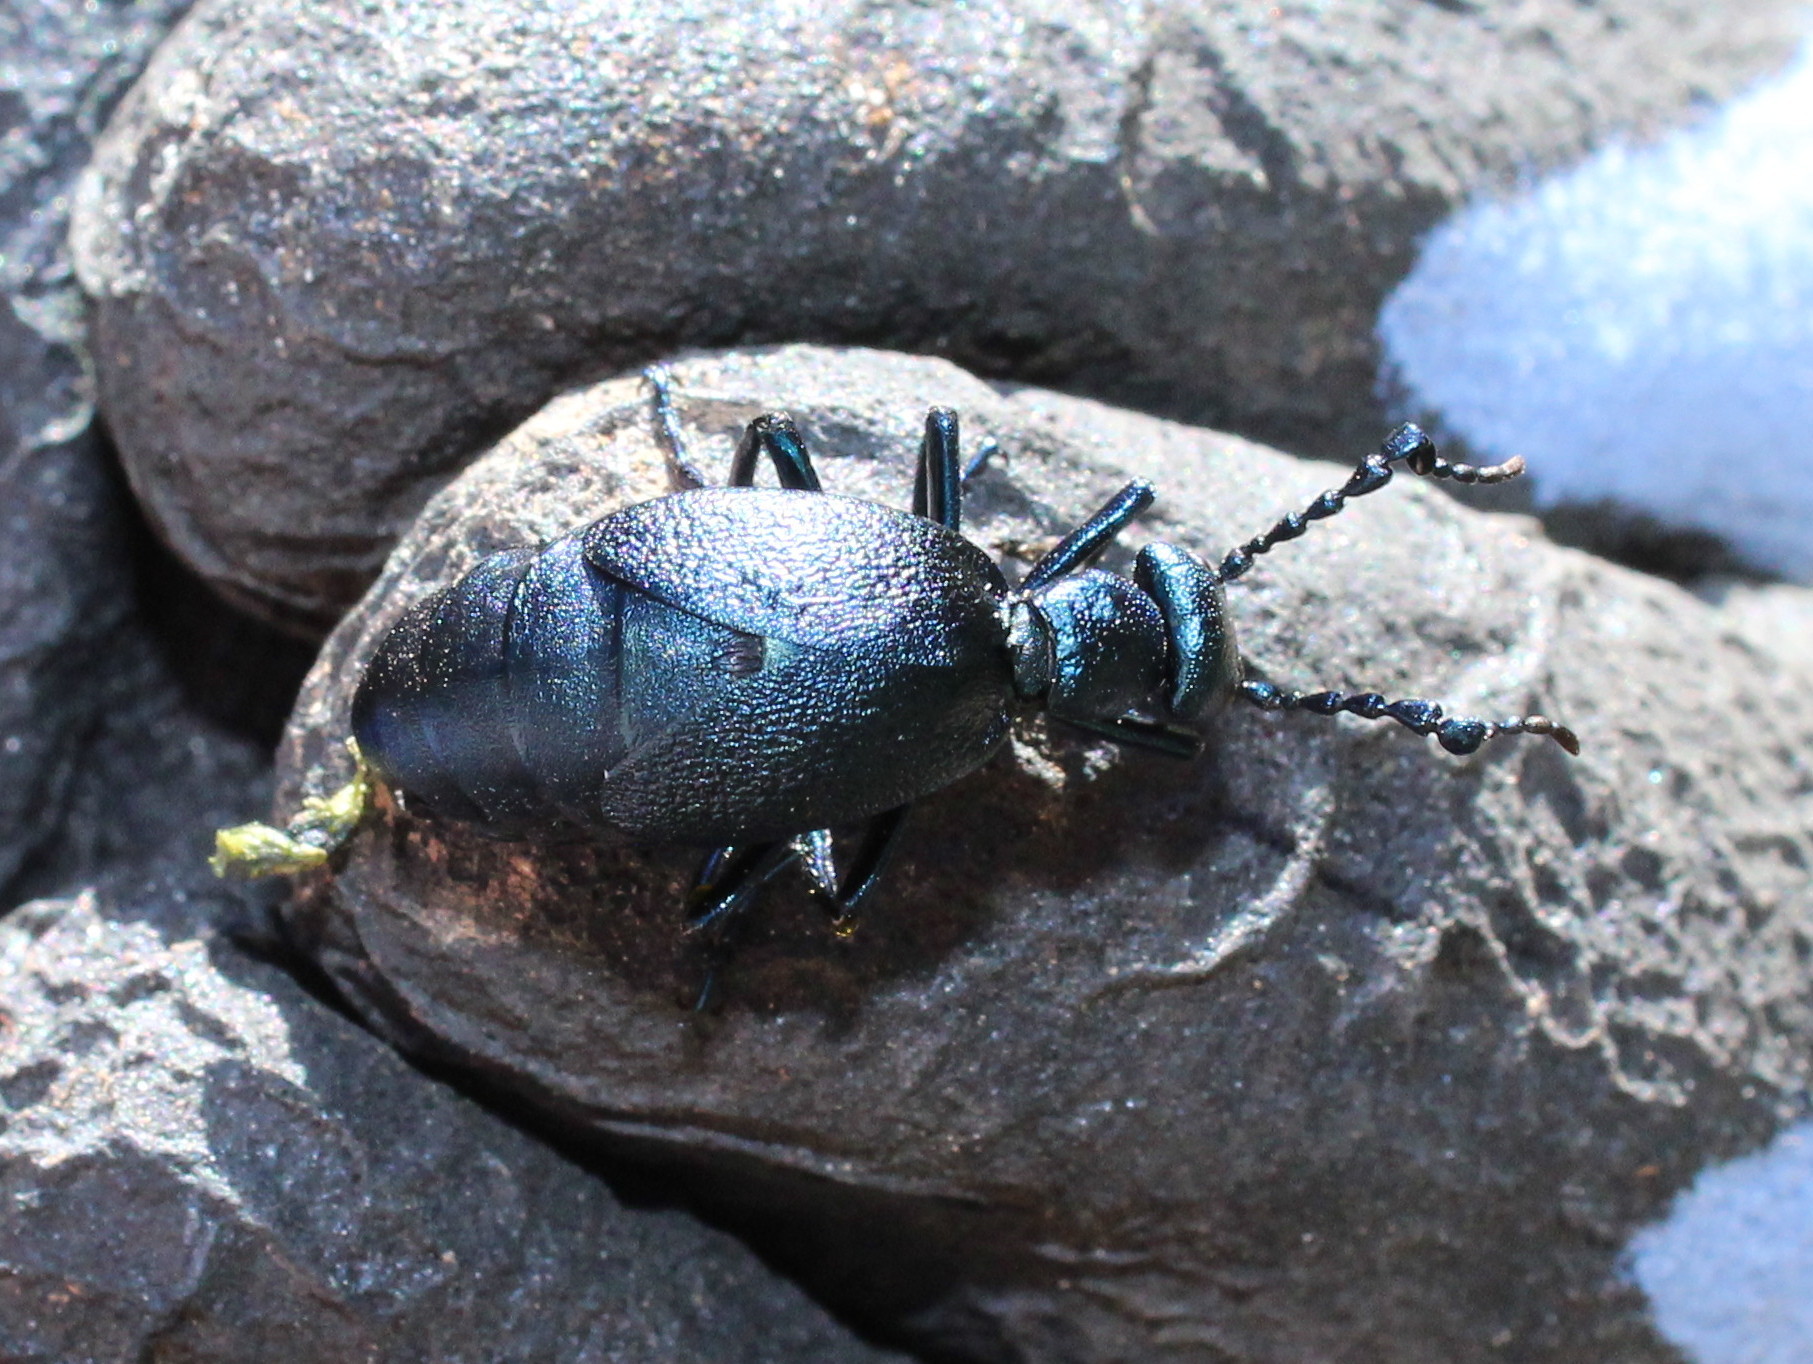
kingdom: Animalia
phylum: Arthropoda
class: Insecta
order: Coleoptera
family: Meloidae
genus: Meloe
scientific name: Meloe angusticollis
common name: Short-winged blister beetle
